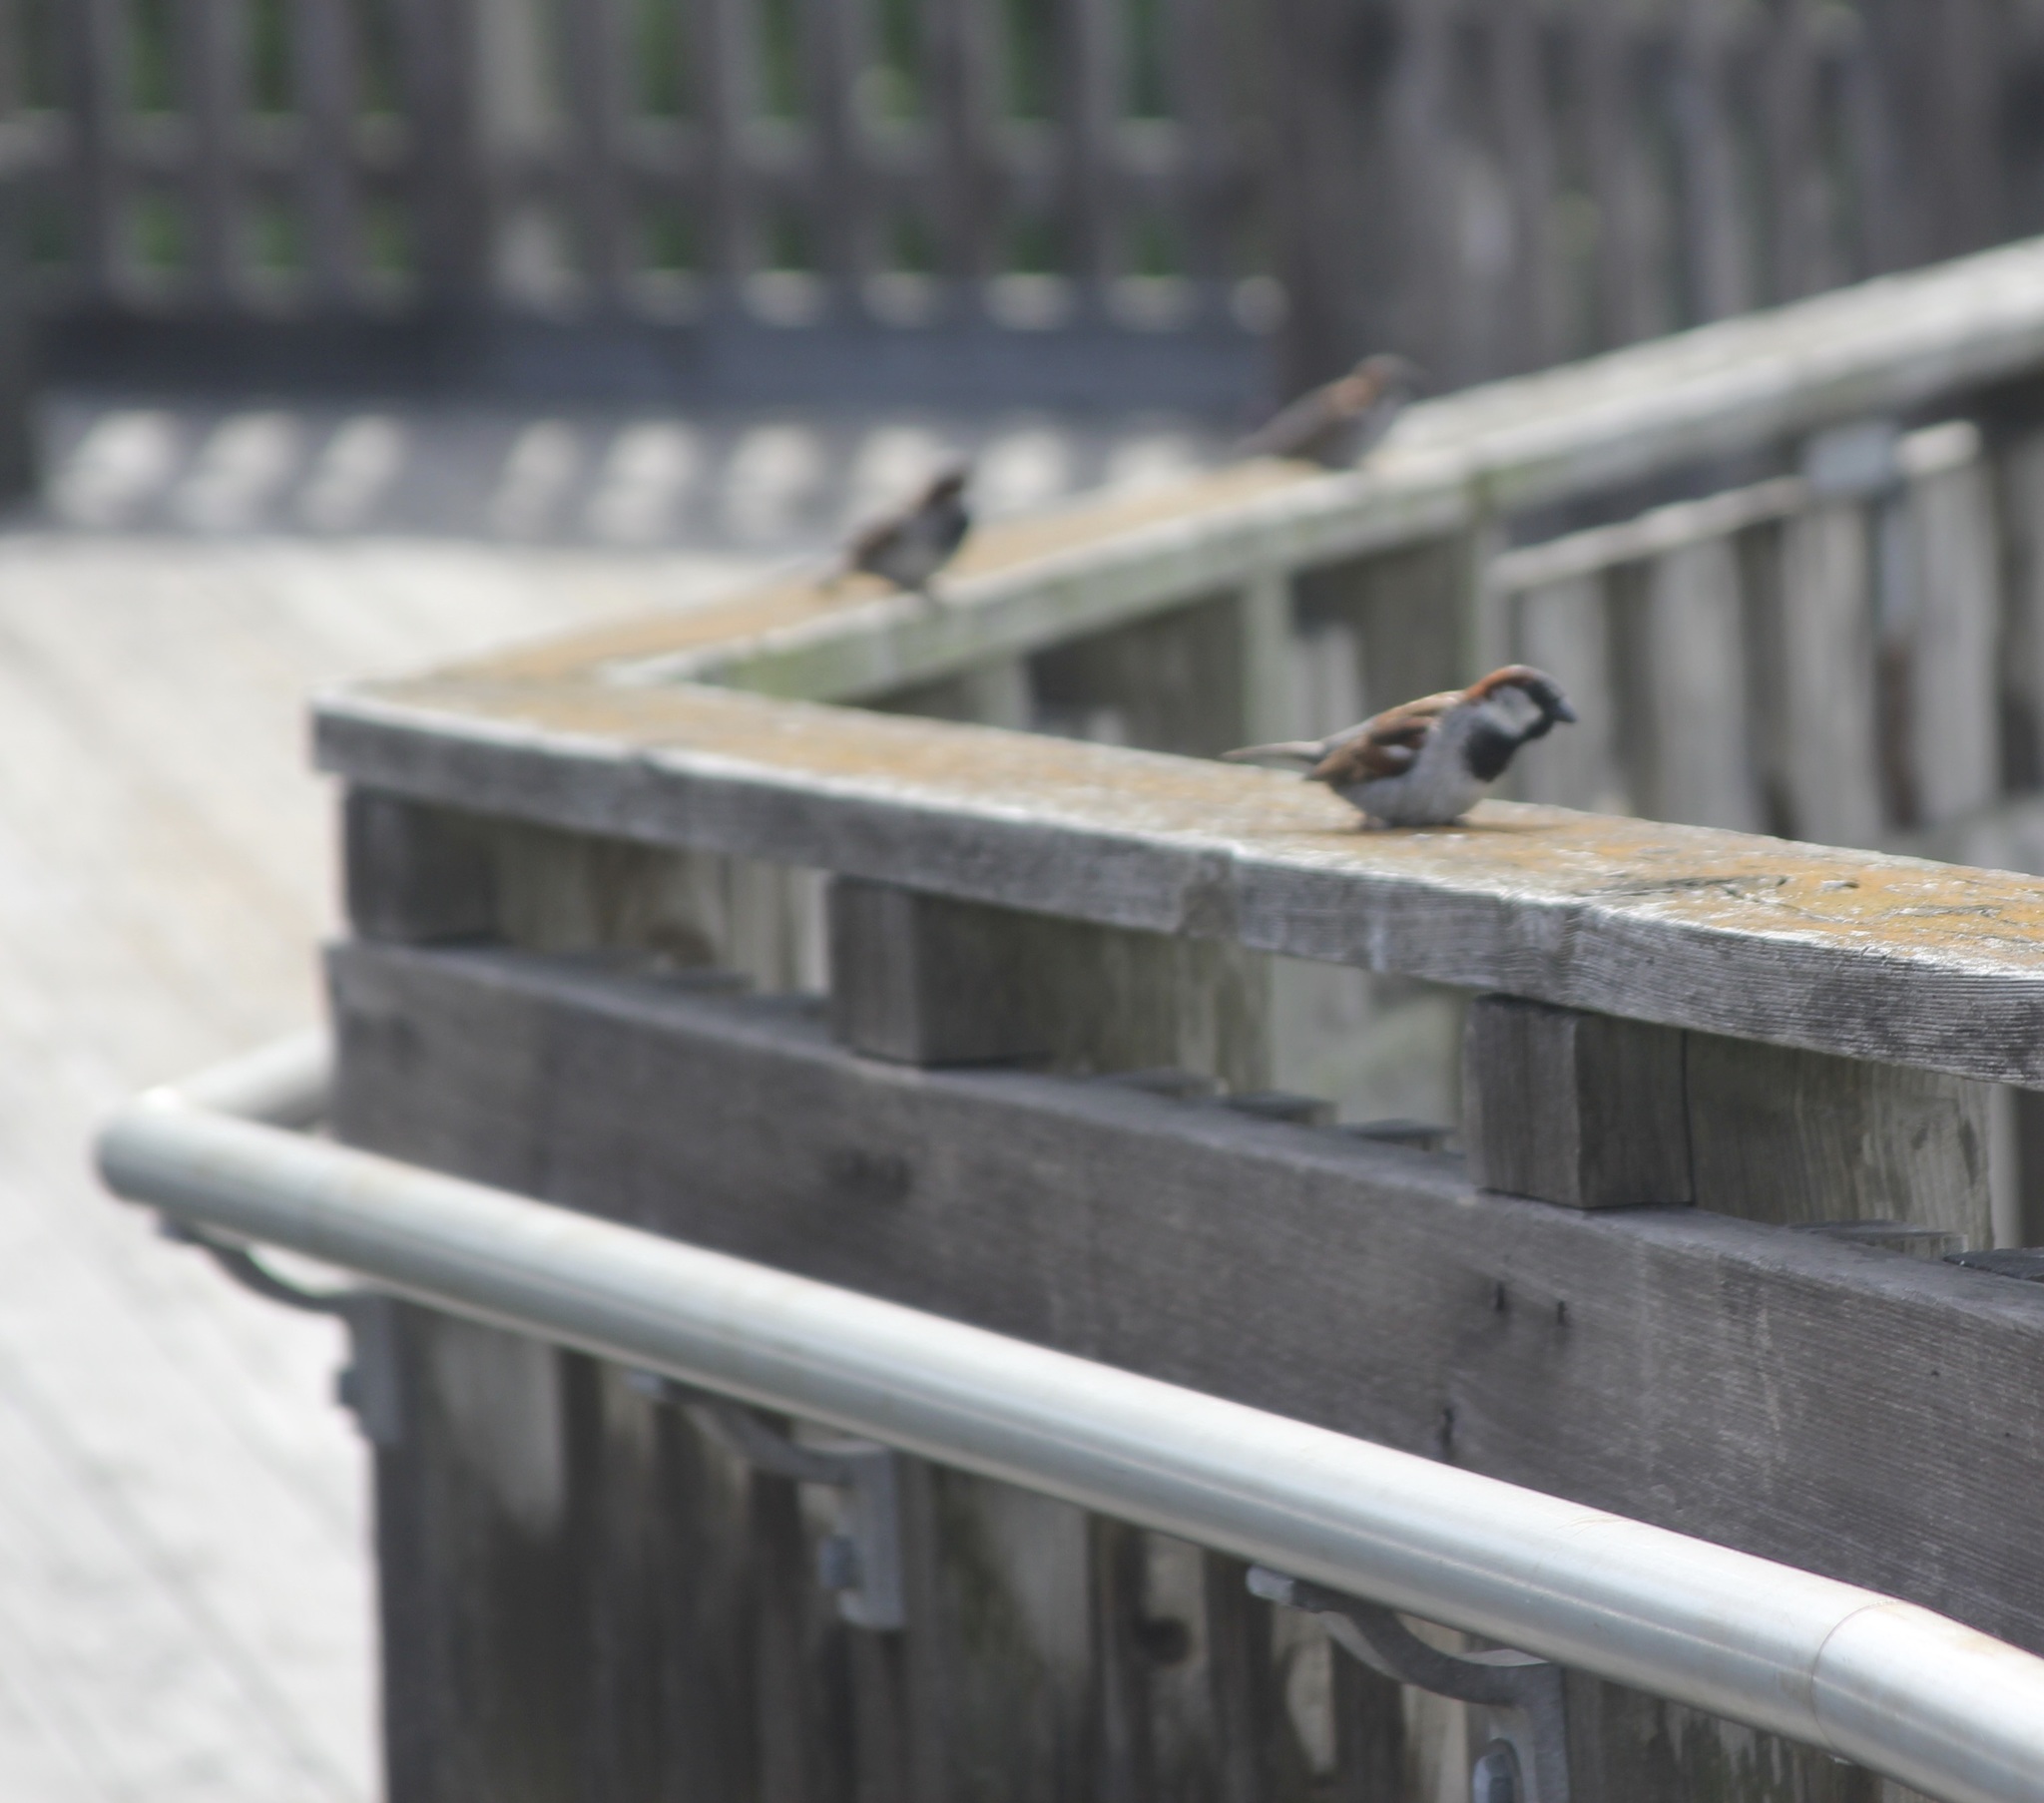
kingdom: Animalia
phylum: Chordata
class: Aves
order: Passeriformes
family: Passeridae
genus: Passer
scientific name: Passer domesticus
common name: House sparrow
